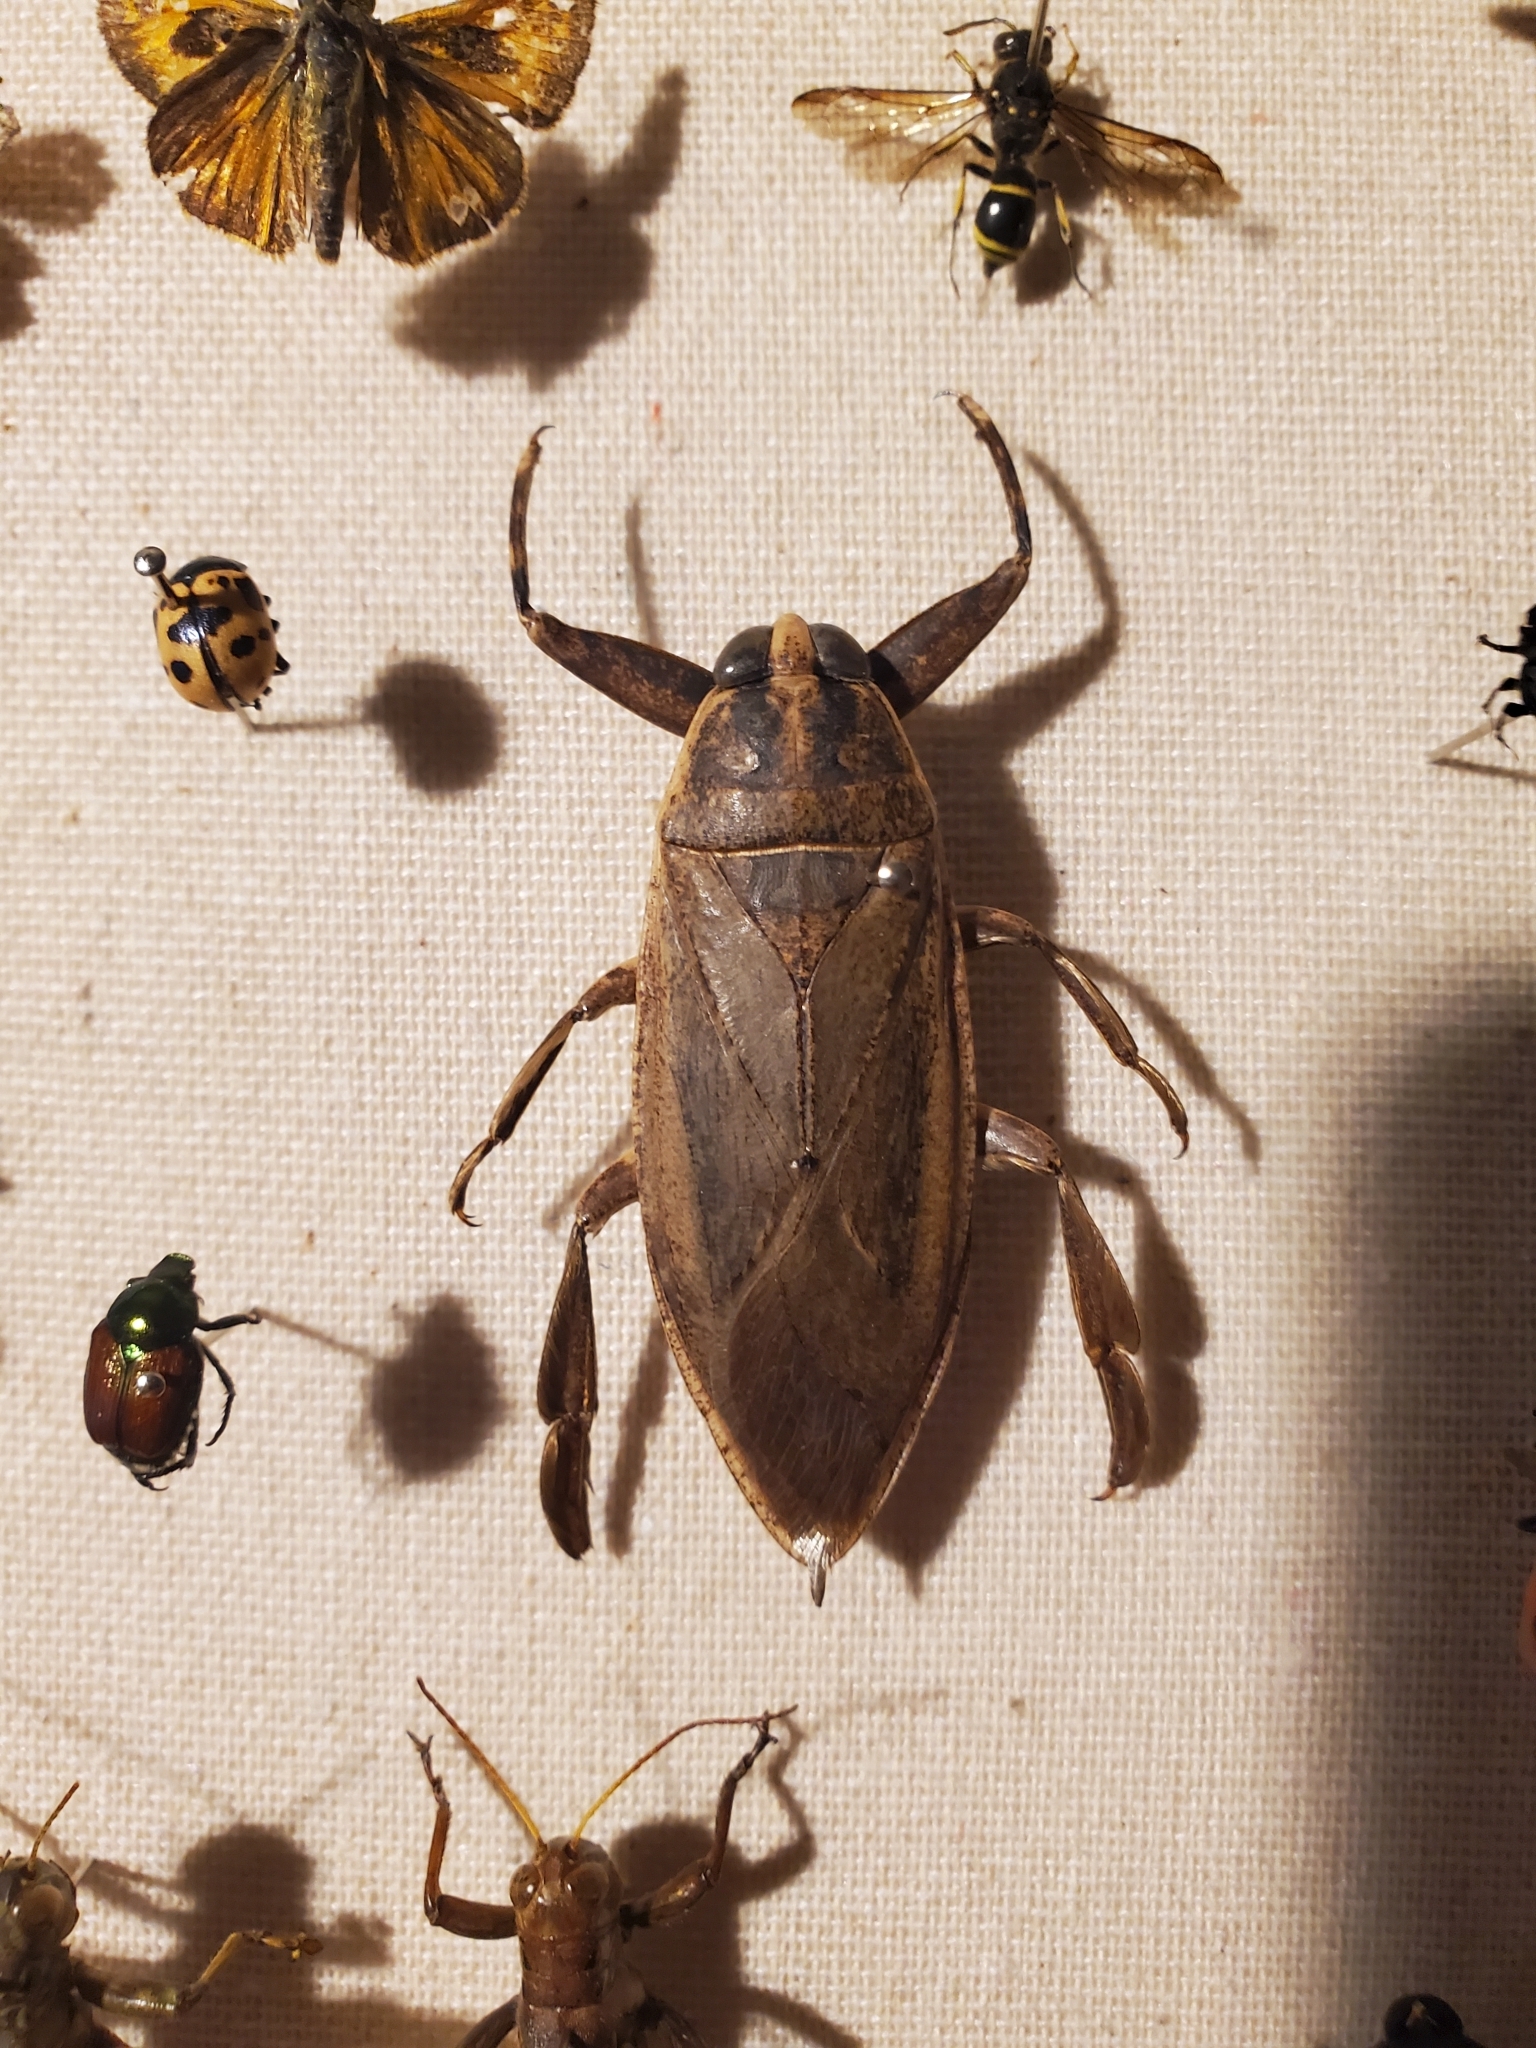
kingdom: Animalia
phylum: Arthropoda
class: Insecta
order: Hemiptera
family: Belostomatidae
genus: Benacus
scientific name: Benacus griseus
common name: Eastern toe-biter
